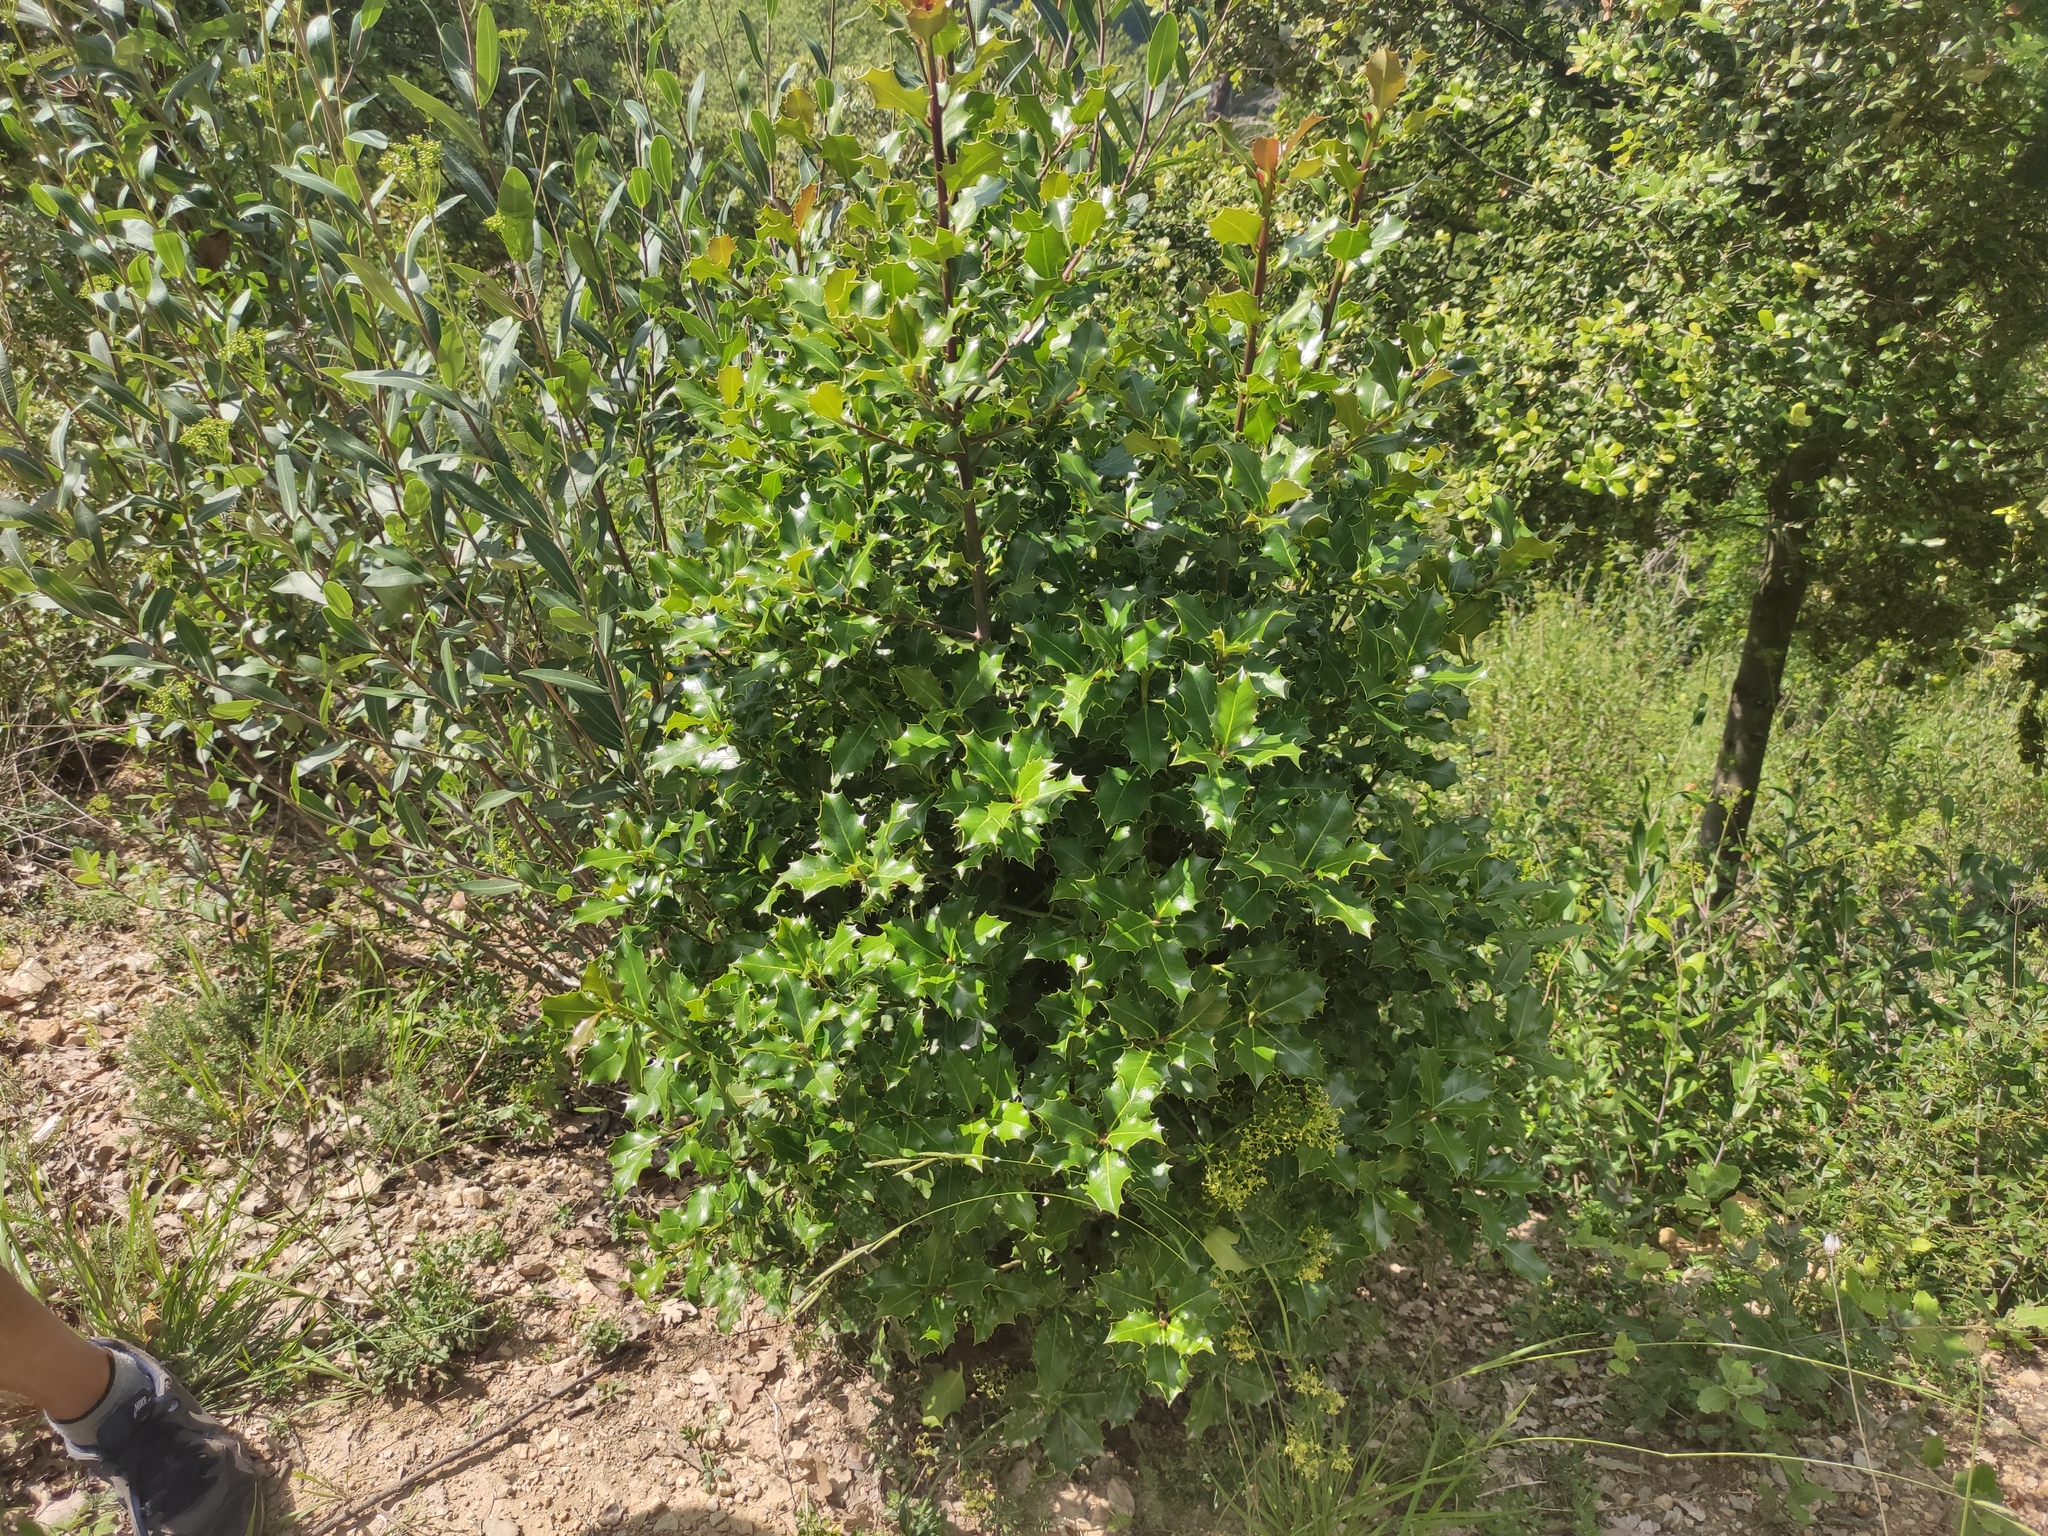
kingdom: Plantae
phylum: Tracheophyta
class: Magnoliopsida
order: Aquifoliales
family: Aquifoliaceae
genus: Ilex
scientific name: Ilex aquifolium
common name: English holly
